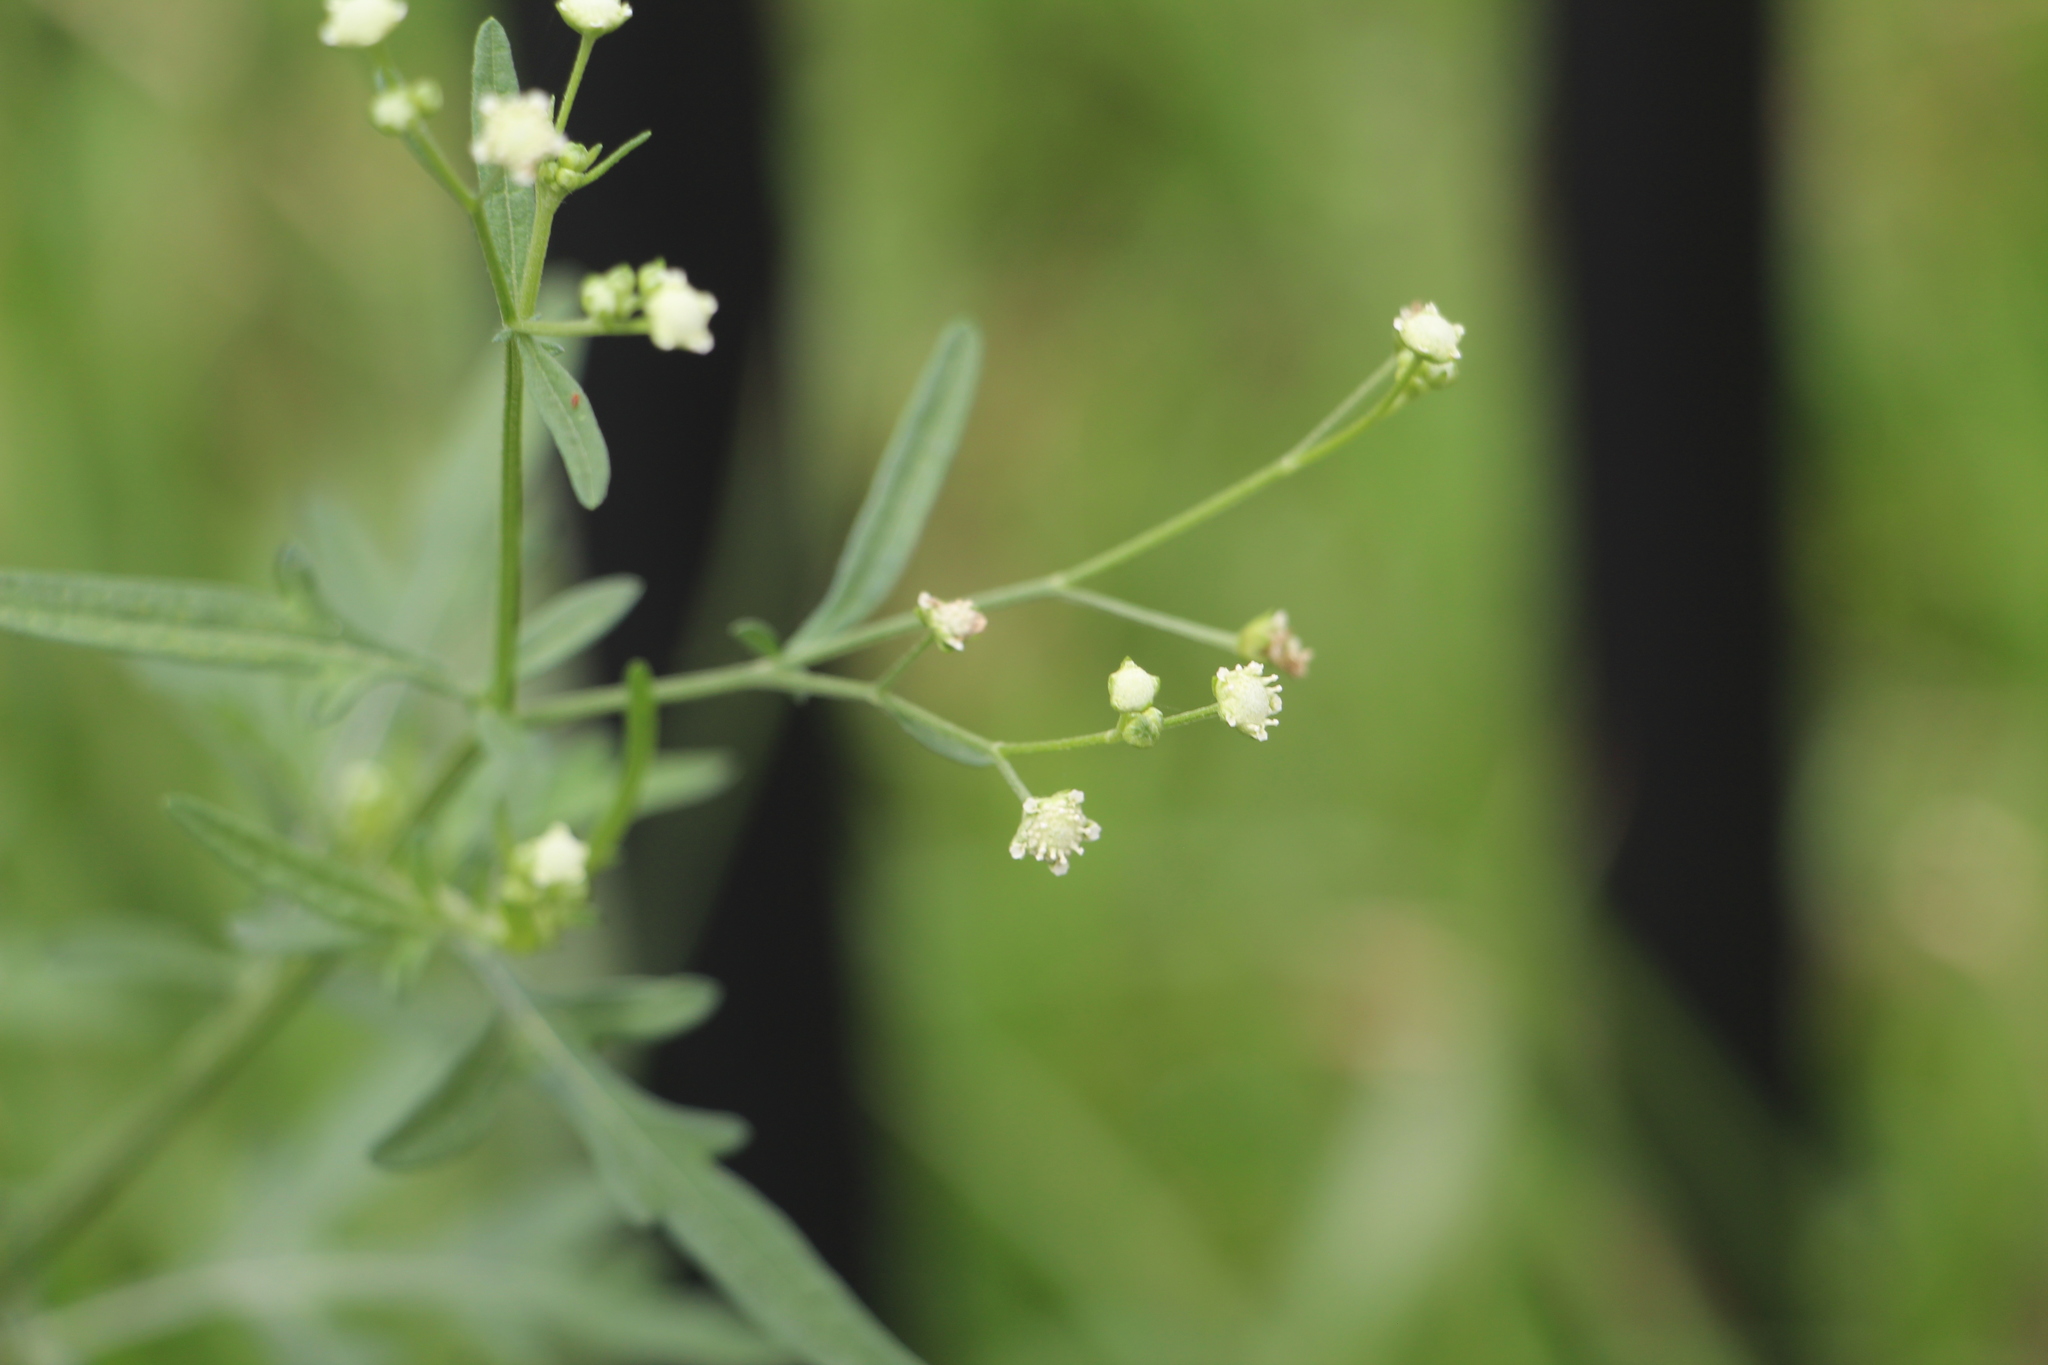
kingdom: Plantae
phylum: Tracheophyta
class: Magnoliopsida
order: Asterales
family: Asteraceae
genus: Parthenium
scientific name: Parthenium hysterophorus
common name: Santa maria feverfew
